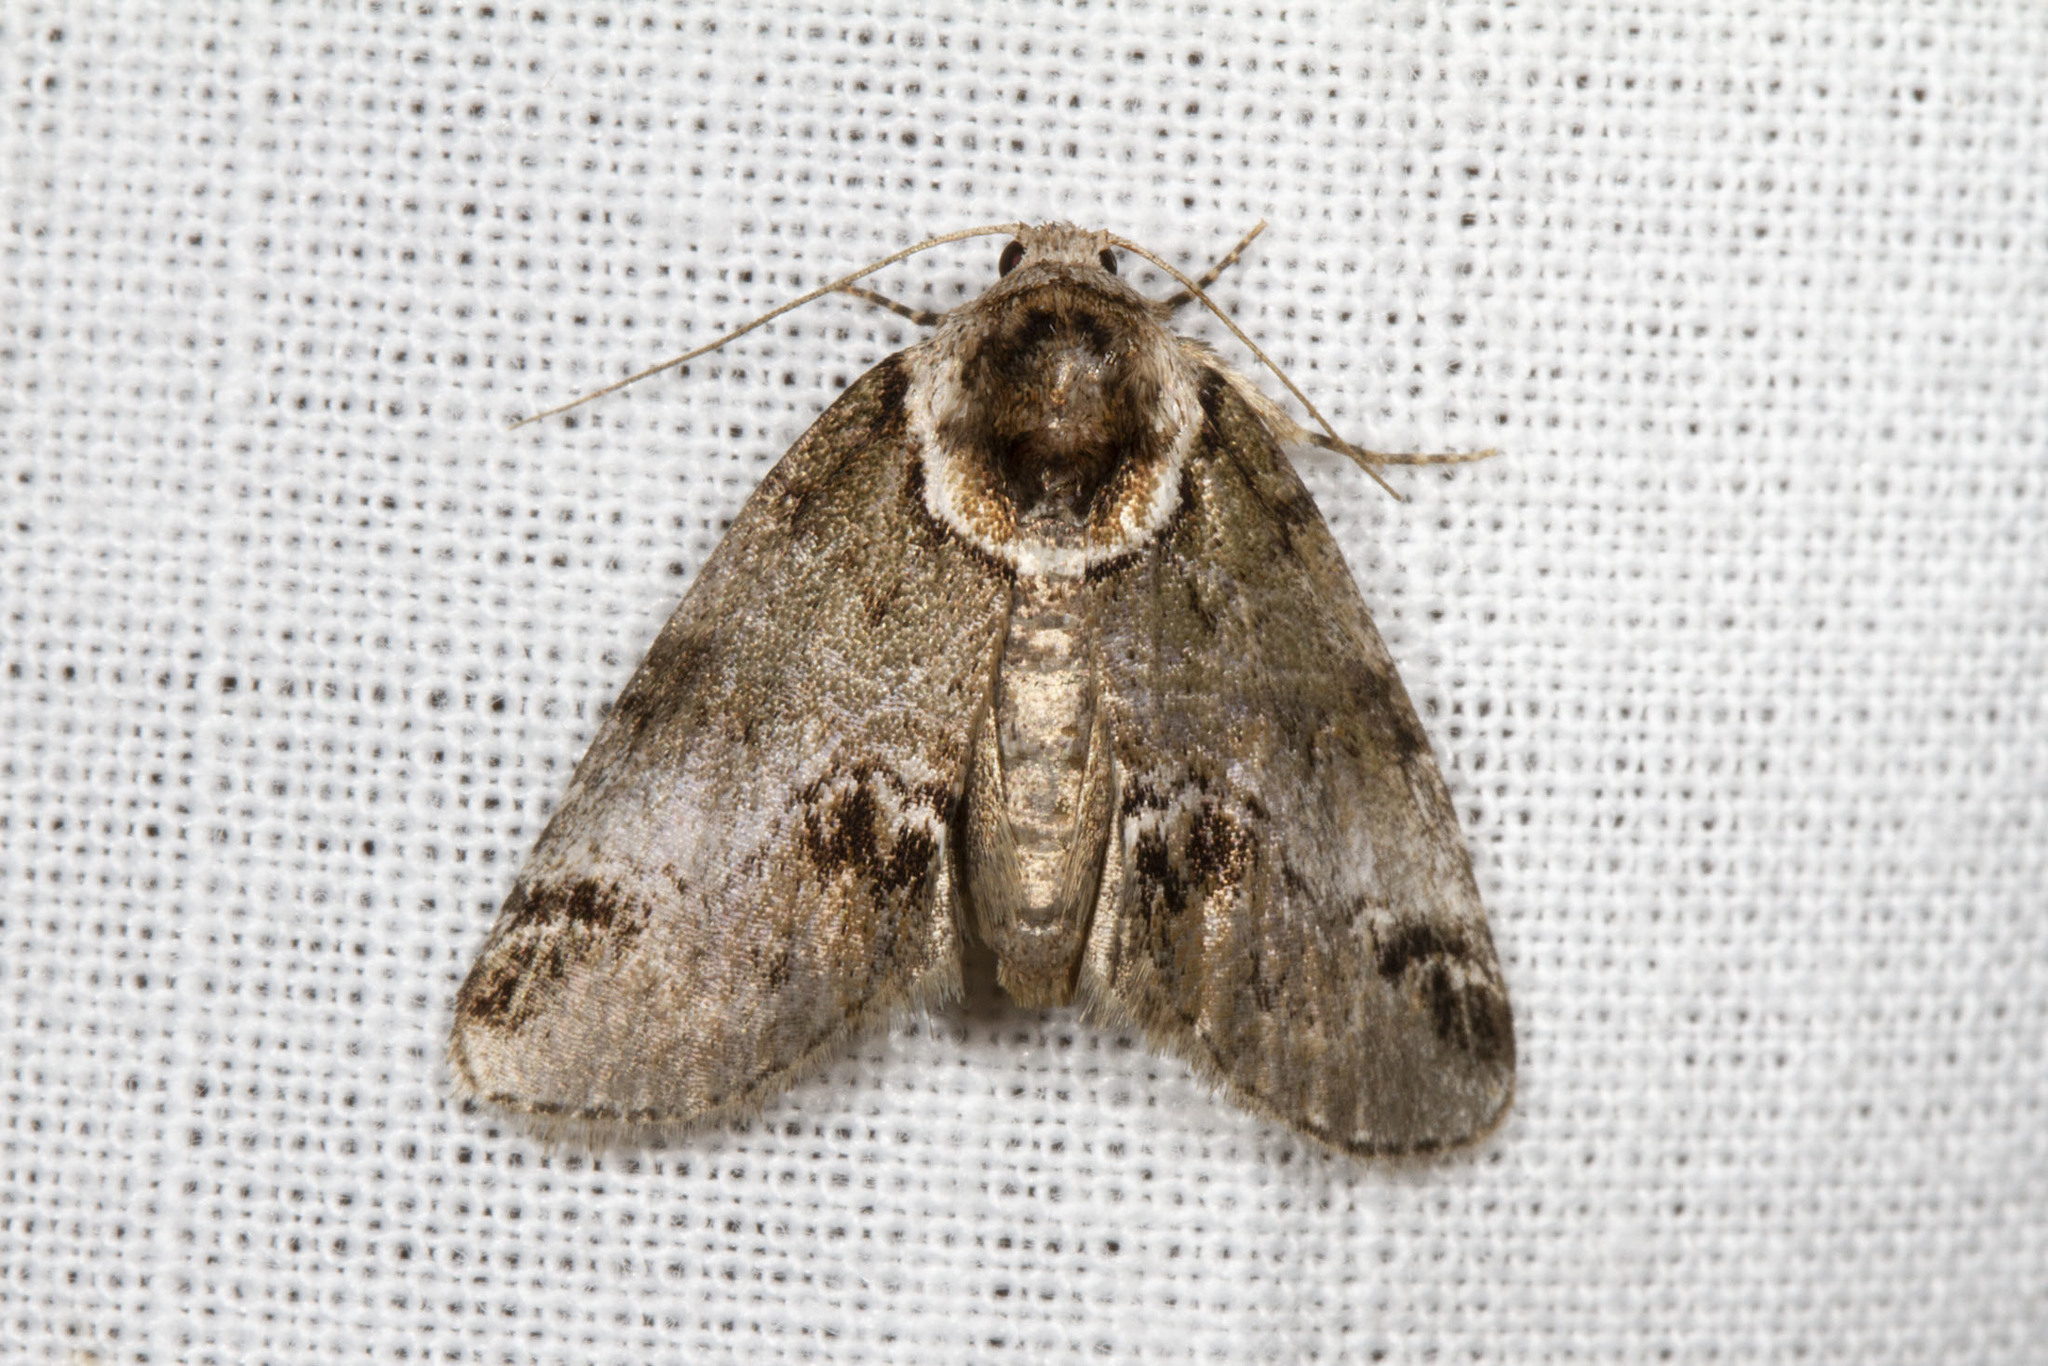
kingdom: Animalia
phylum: Arthropoda
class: Insecta
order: Lepidoptera
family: Nolidae
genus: Baileya
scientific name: Baileya australis
